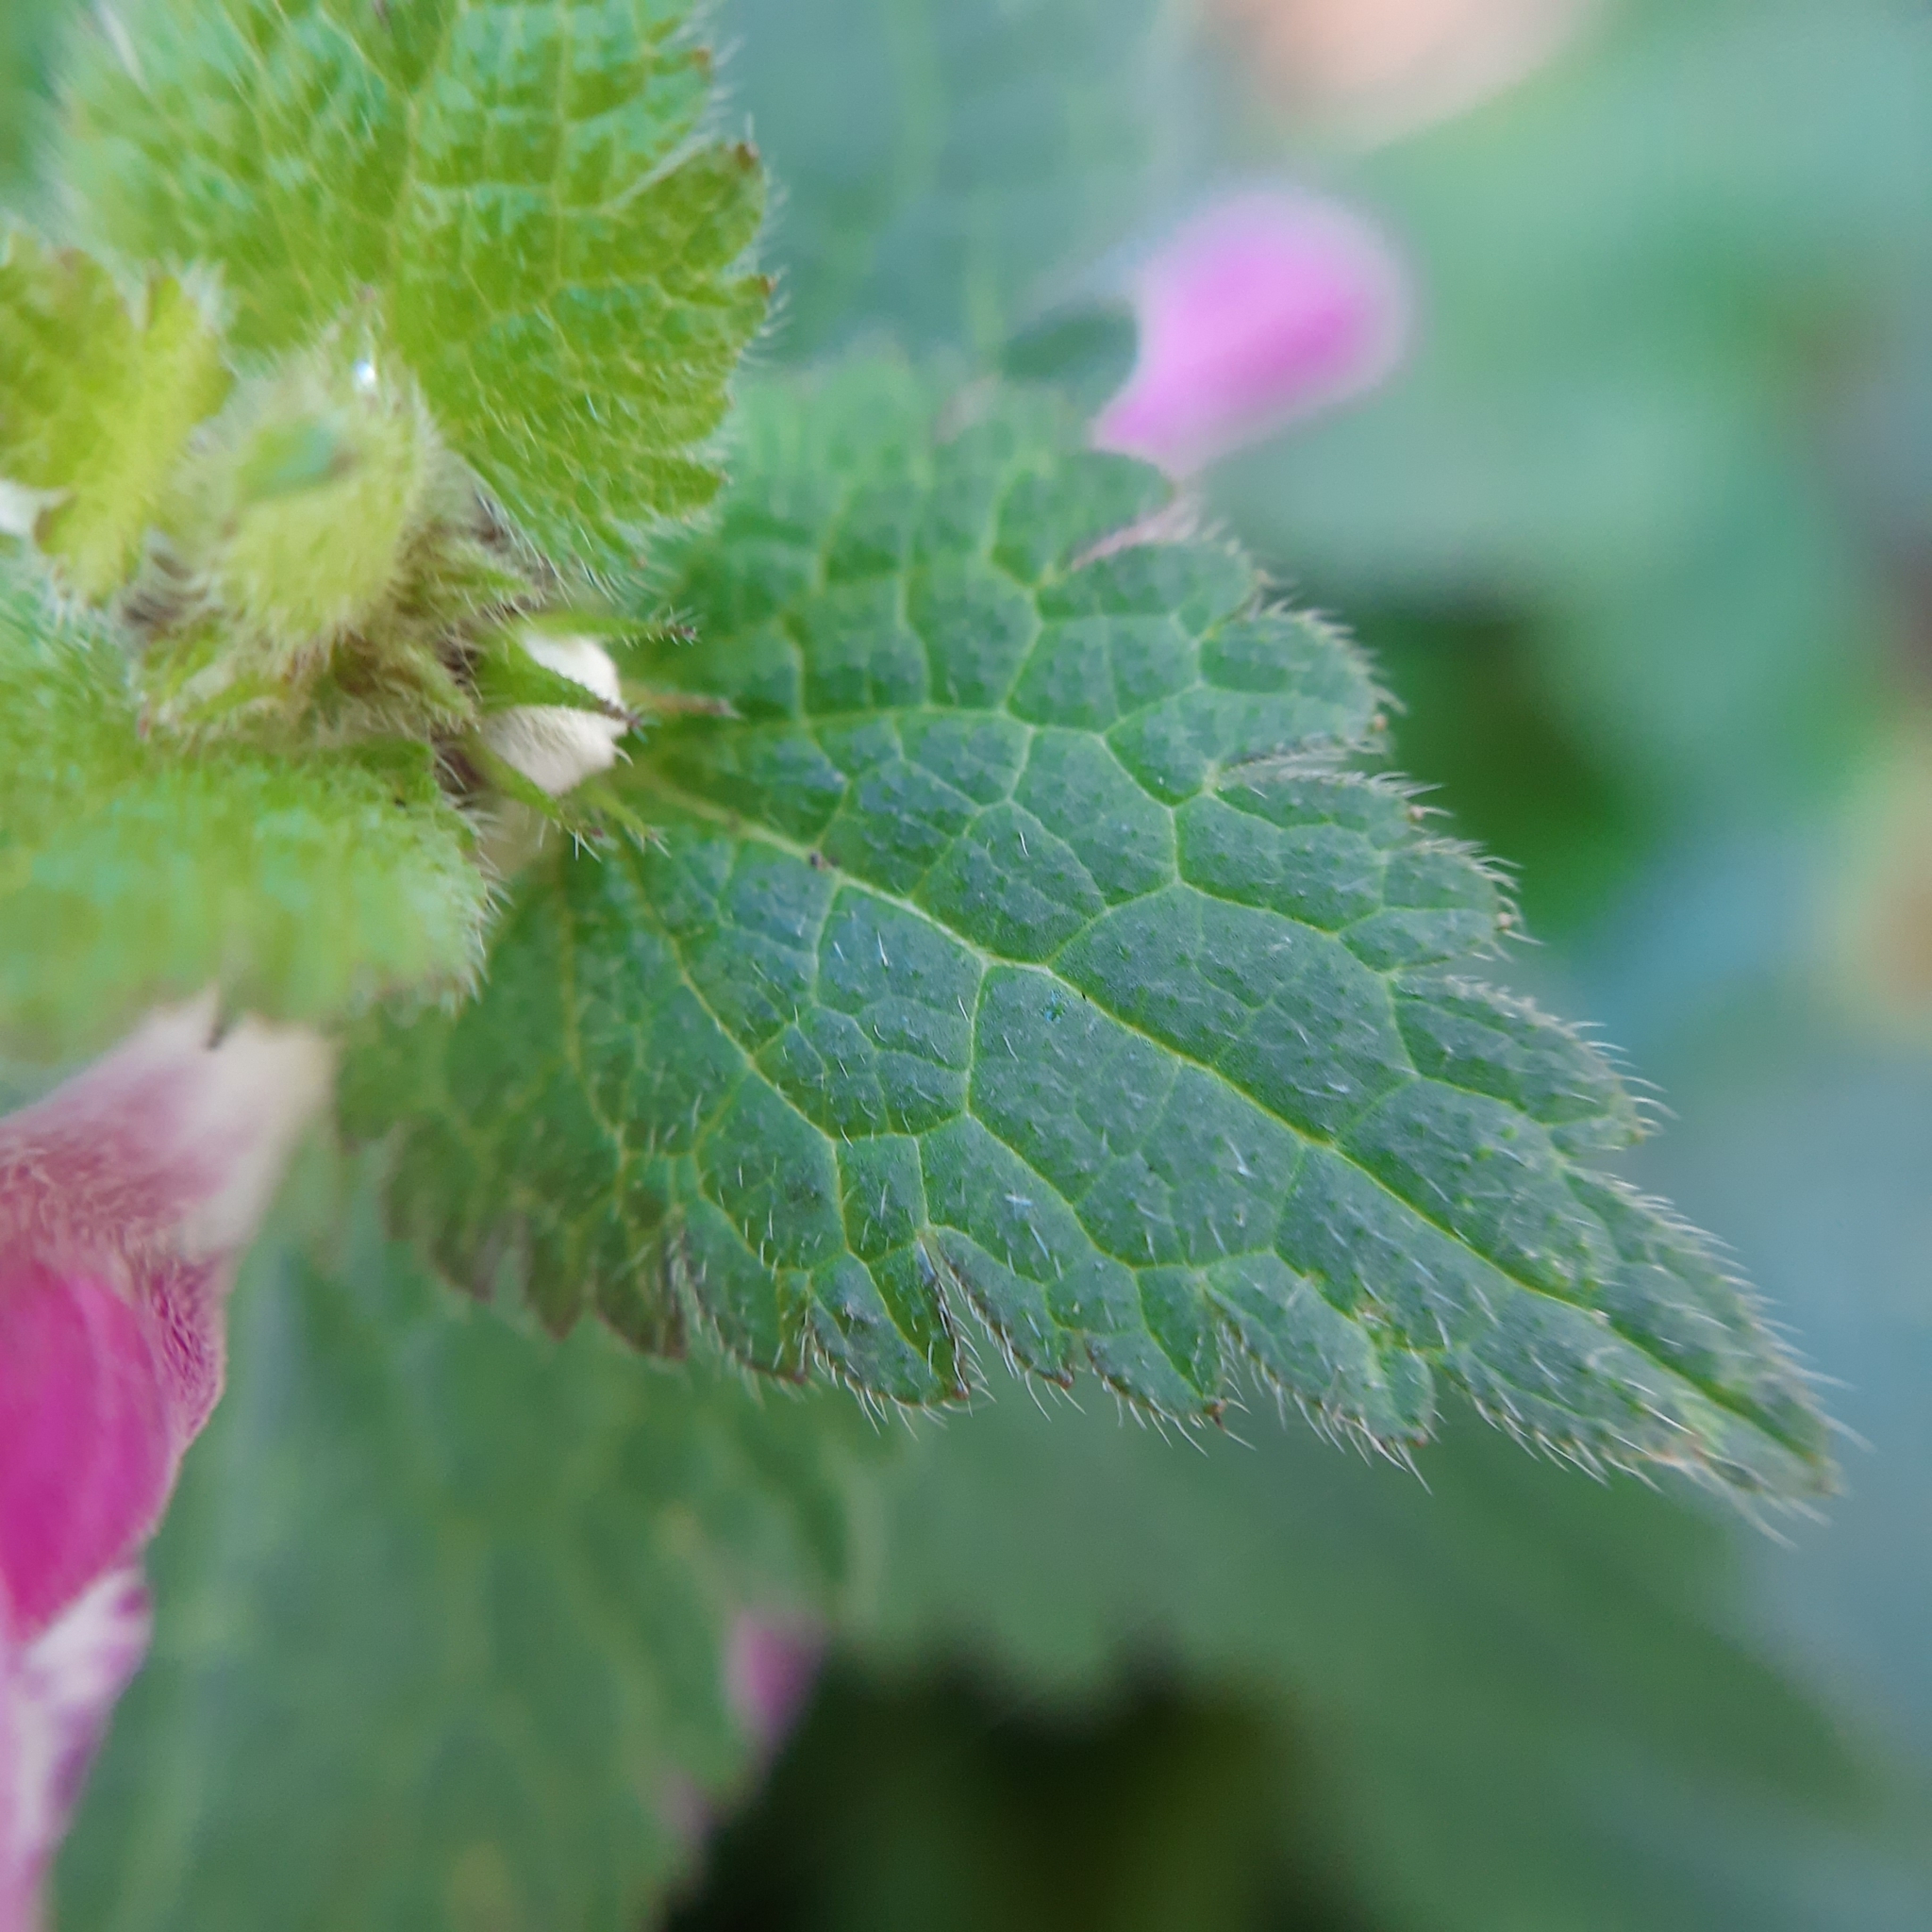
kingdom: Plantae
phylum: Tracheophyta
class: Magnoliopsida
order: Lamiales
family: Lamiaceae
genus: Lamium
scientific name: Lamium maculatum
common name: Spotted dead-nettle
